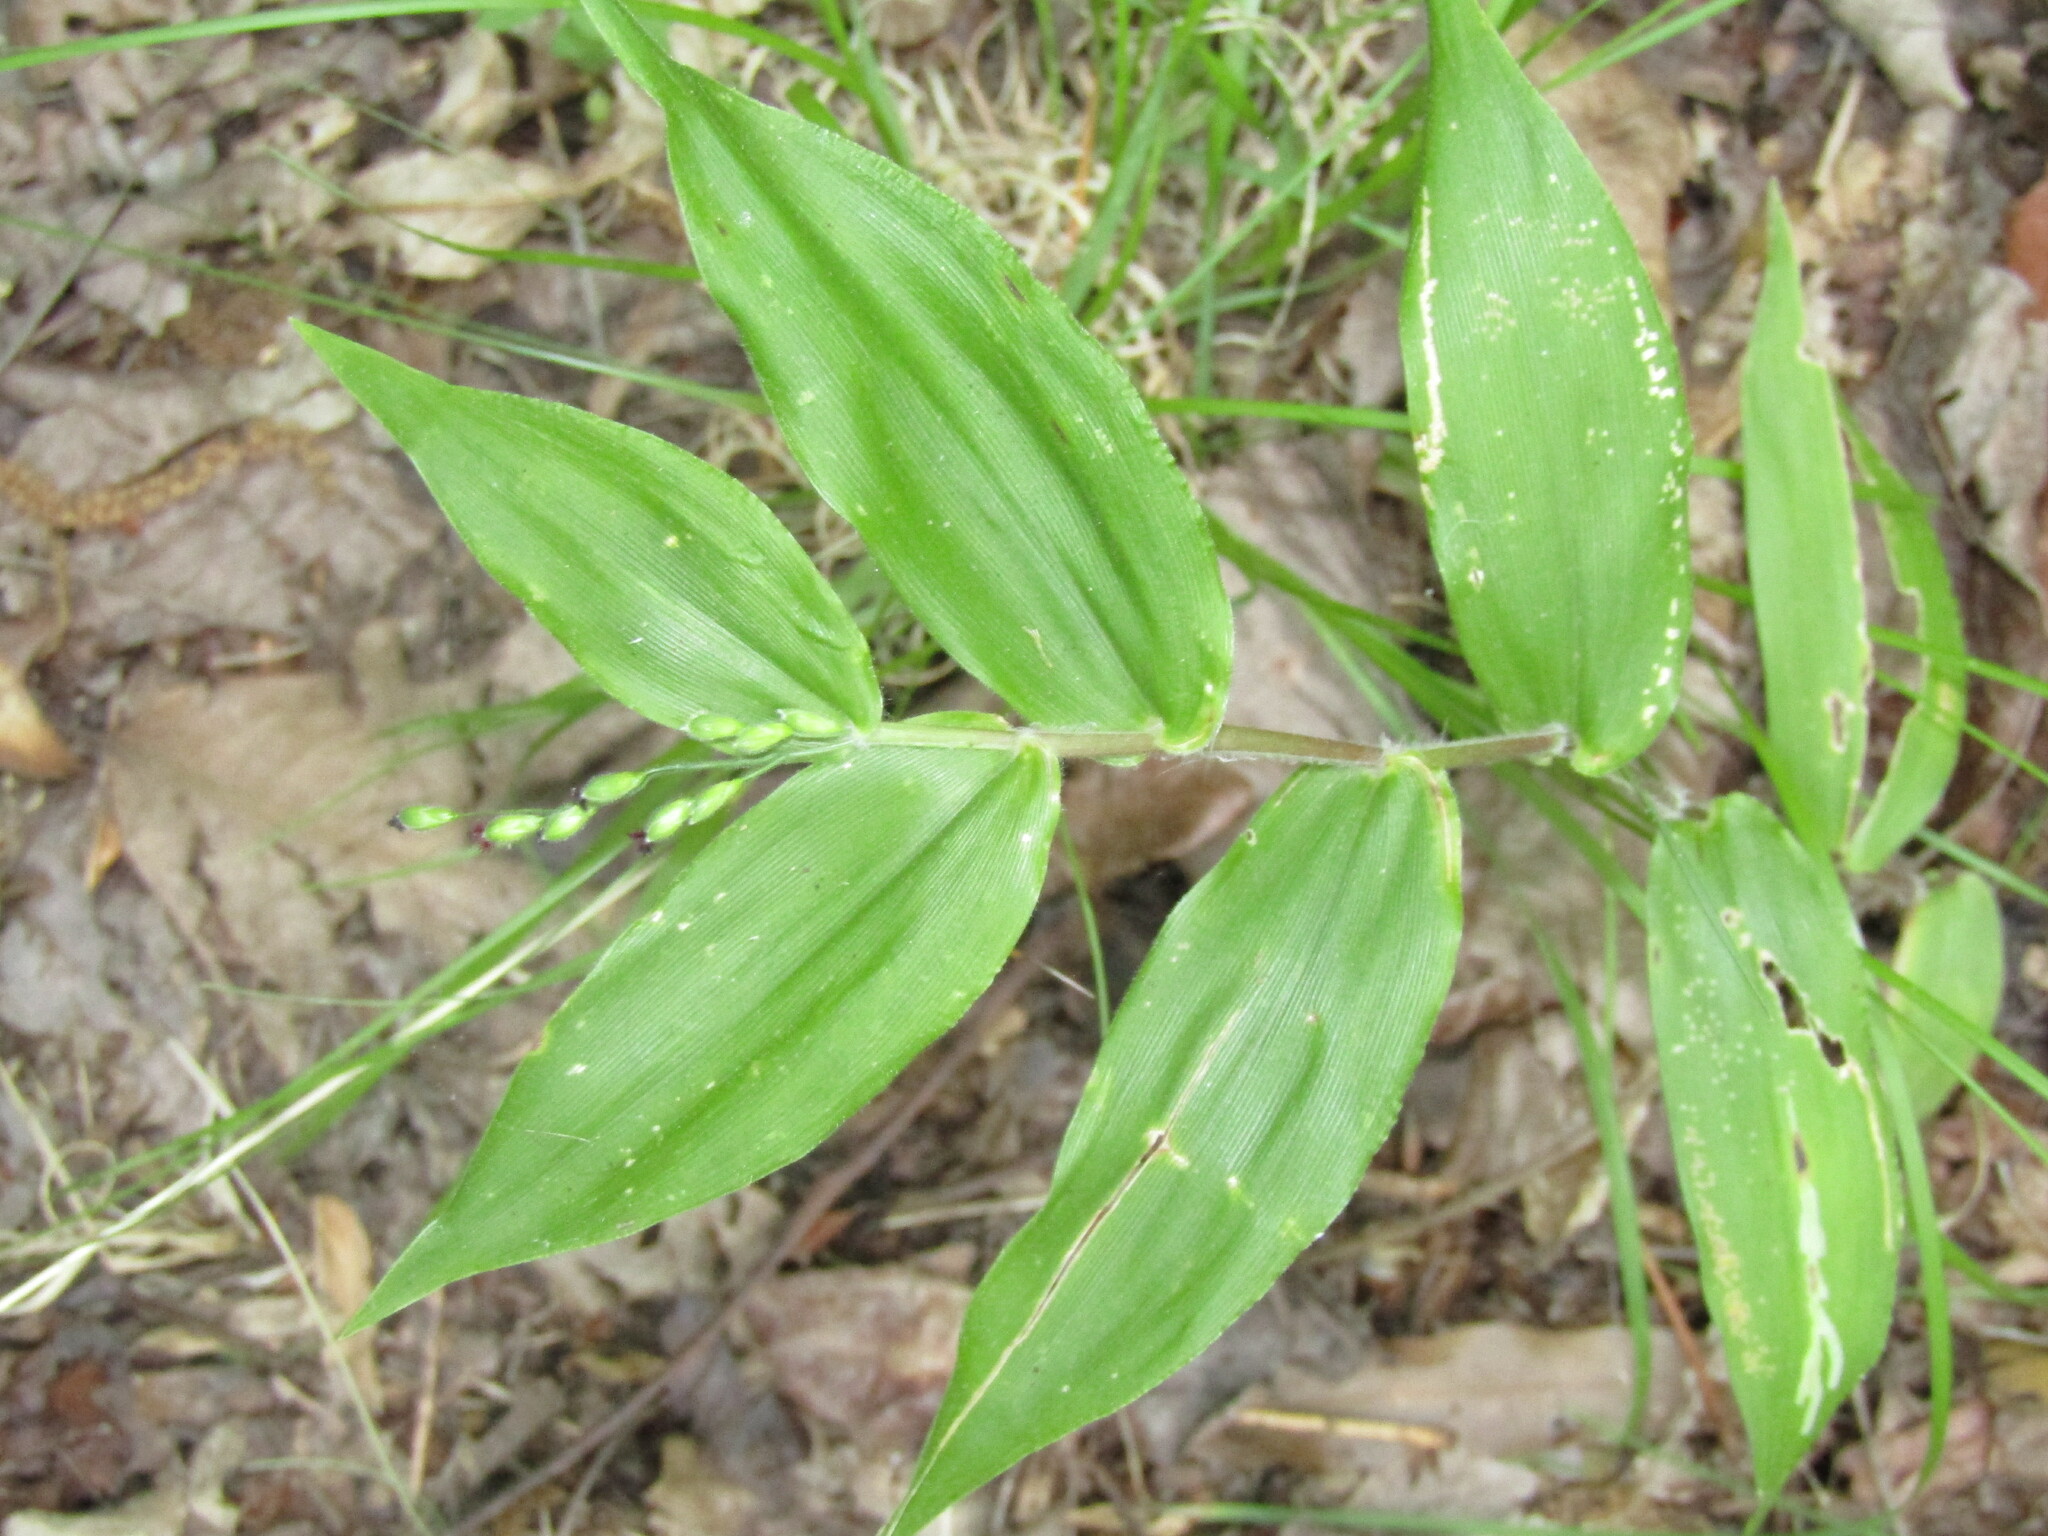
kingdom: Plantae
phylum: Tracheophyta
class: Liliopsida
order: Poales
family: Poaceae
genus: Dichanthelium
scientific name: Dichanthelium boscii
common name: Bosc's panic grass
